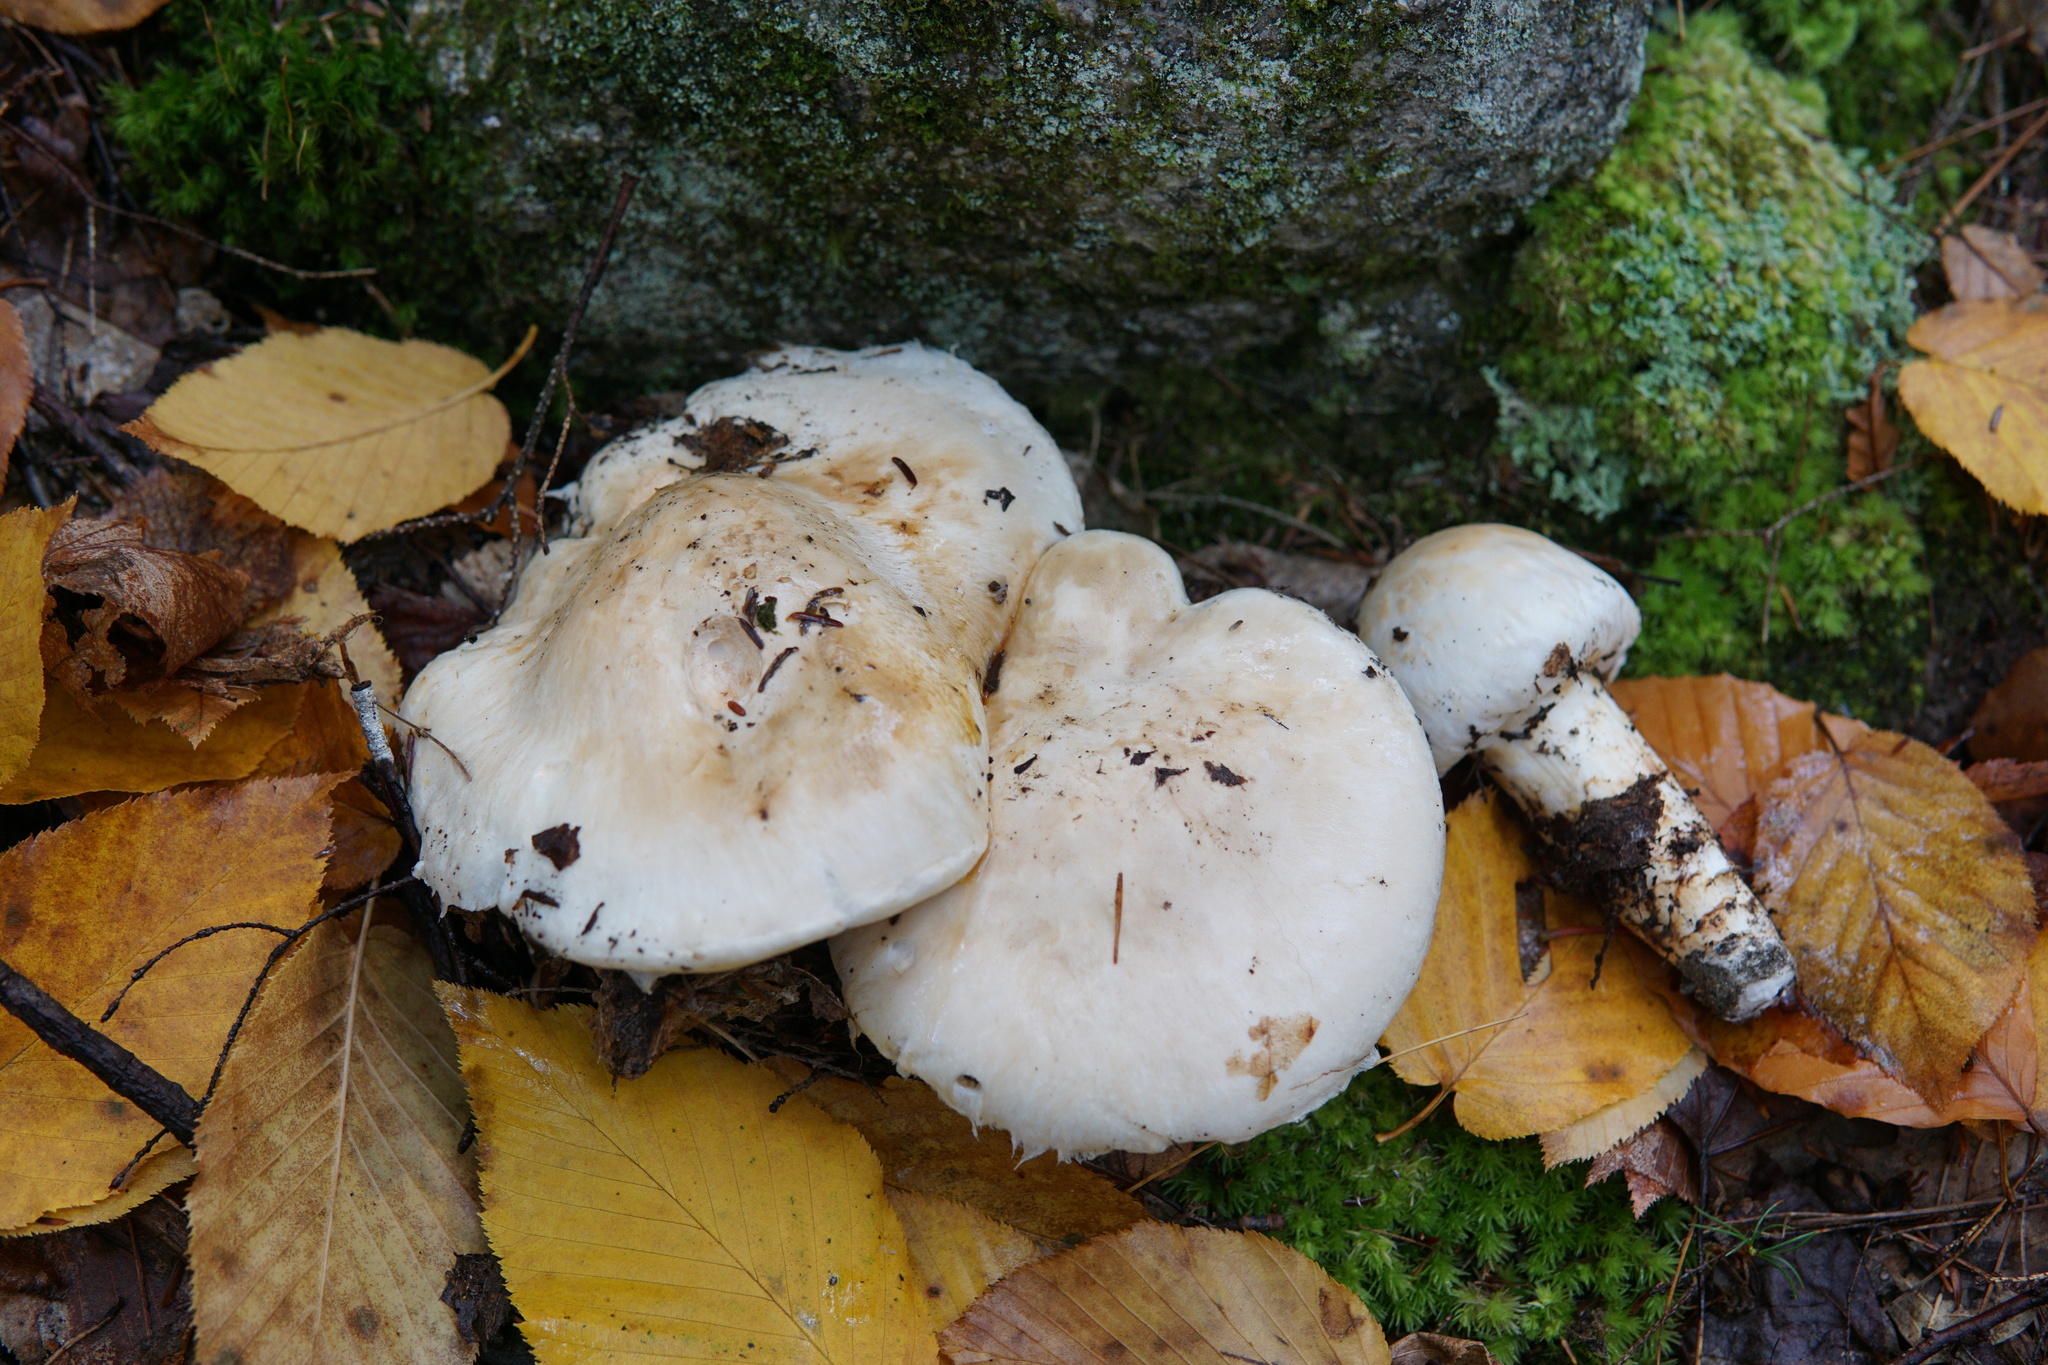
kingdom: Fungi
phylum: Basidiomycota
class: Agaricomycetes
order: Agaricales
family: Tricholomataceae
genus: Tricholoma
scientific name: Tricholoma magnivelare
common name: American matsutake
